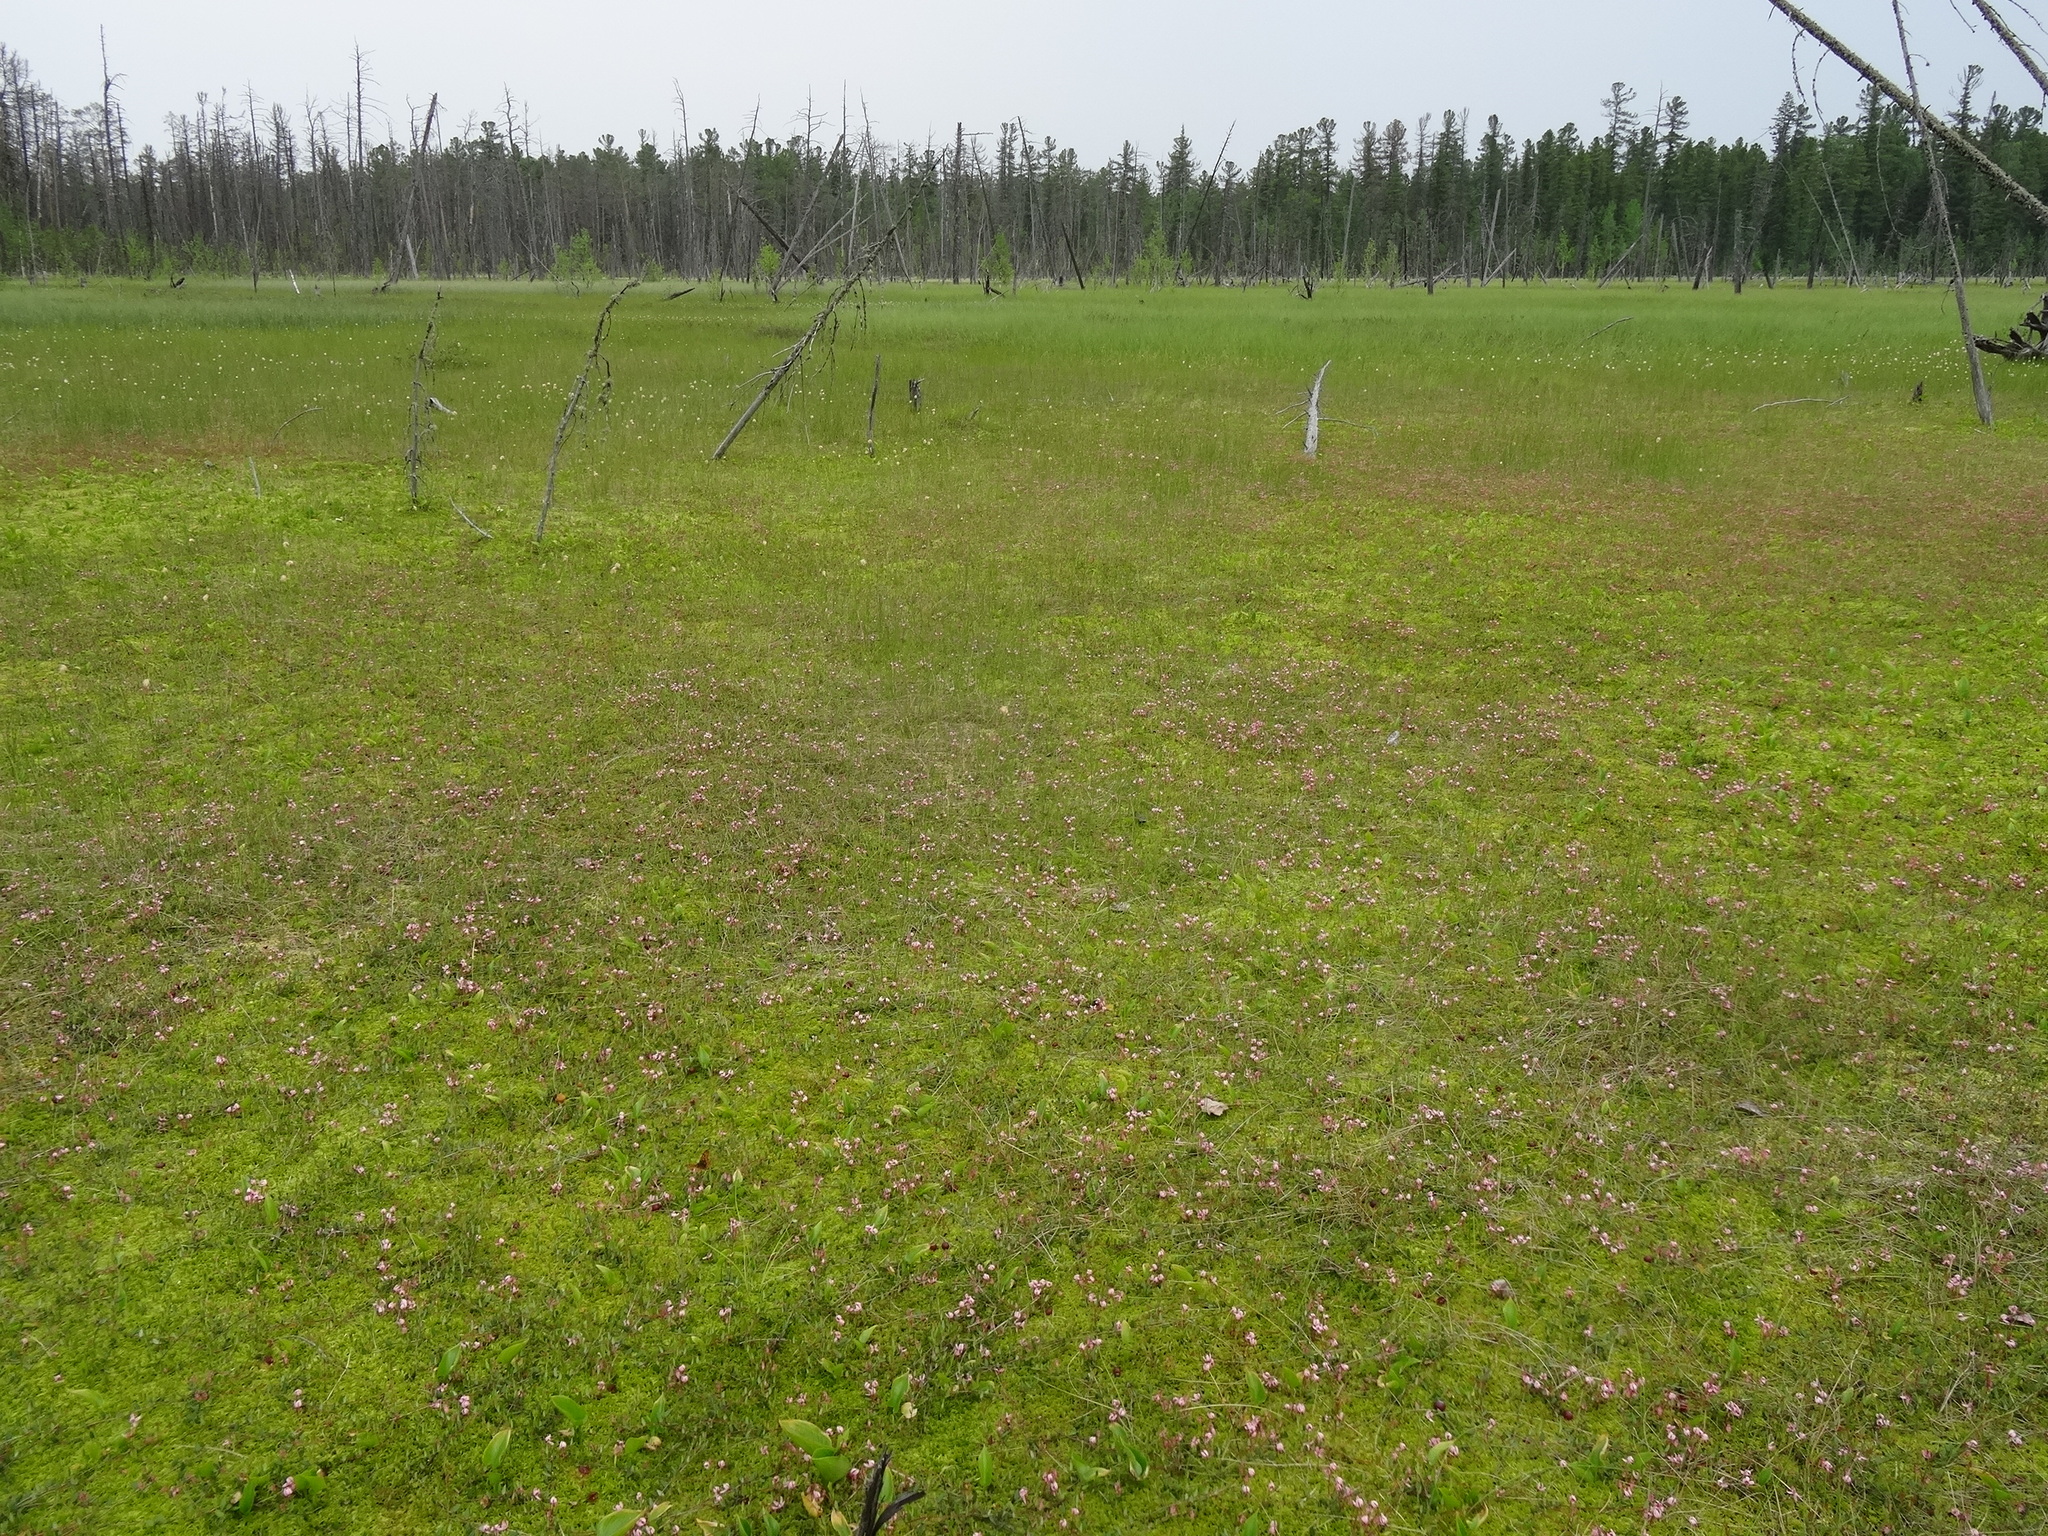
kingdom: Plantae
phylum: Tracheophyta
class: Magnoliopsida
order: Ericales
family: Ericaceae
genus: Vaccinium
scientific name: Vaccinium oxycoccos
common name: Cranberry
